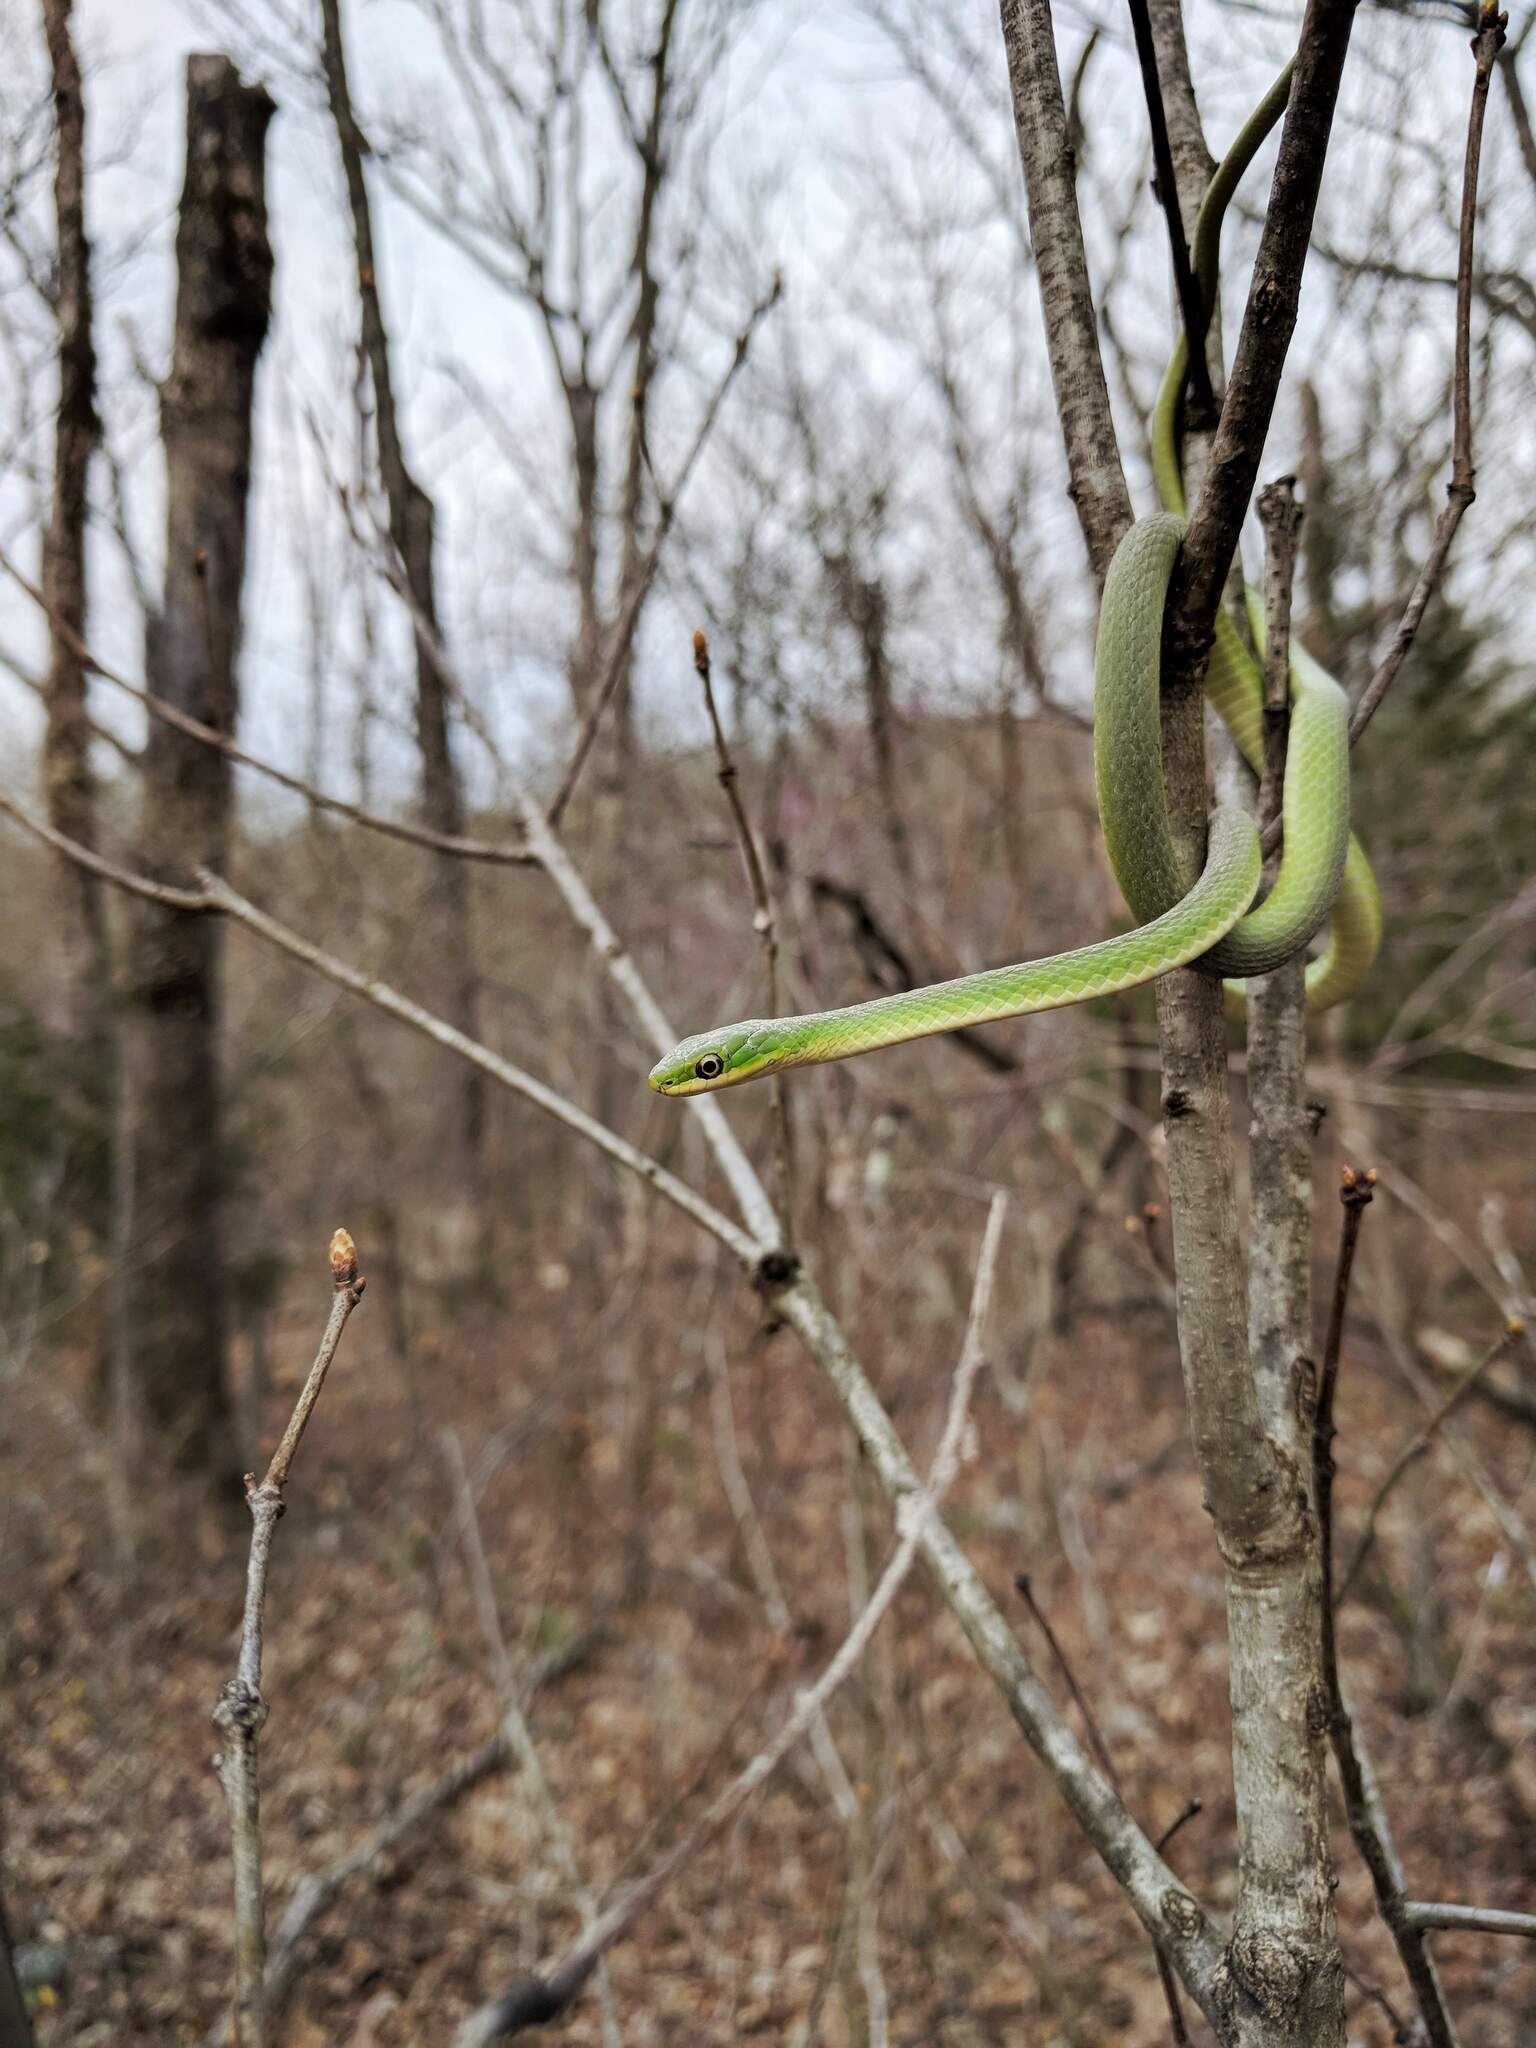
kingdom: Animalia
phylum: Chordata
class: Squamata
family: Colubridae
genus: Opheodrys
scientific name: Opheodrys aestivus
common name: Rough greensnake
